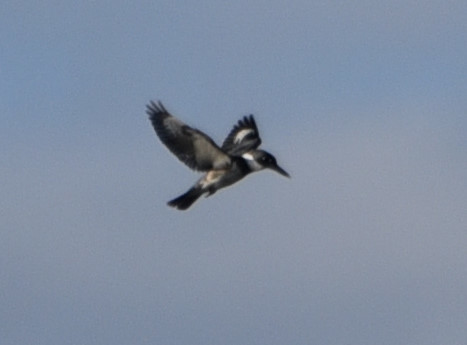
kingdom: Animalia
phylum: Chordata
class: Aves
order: Coraciiformes
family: Alcedinidae
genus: Megaceryle
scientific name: Megaceryle alcyon
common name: Belted kingfisher
